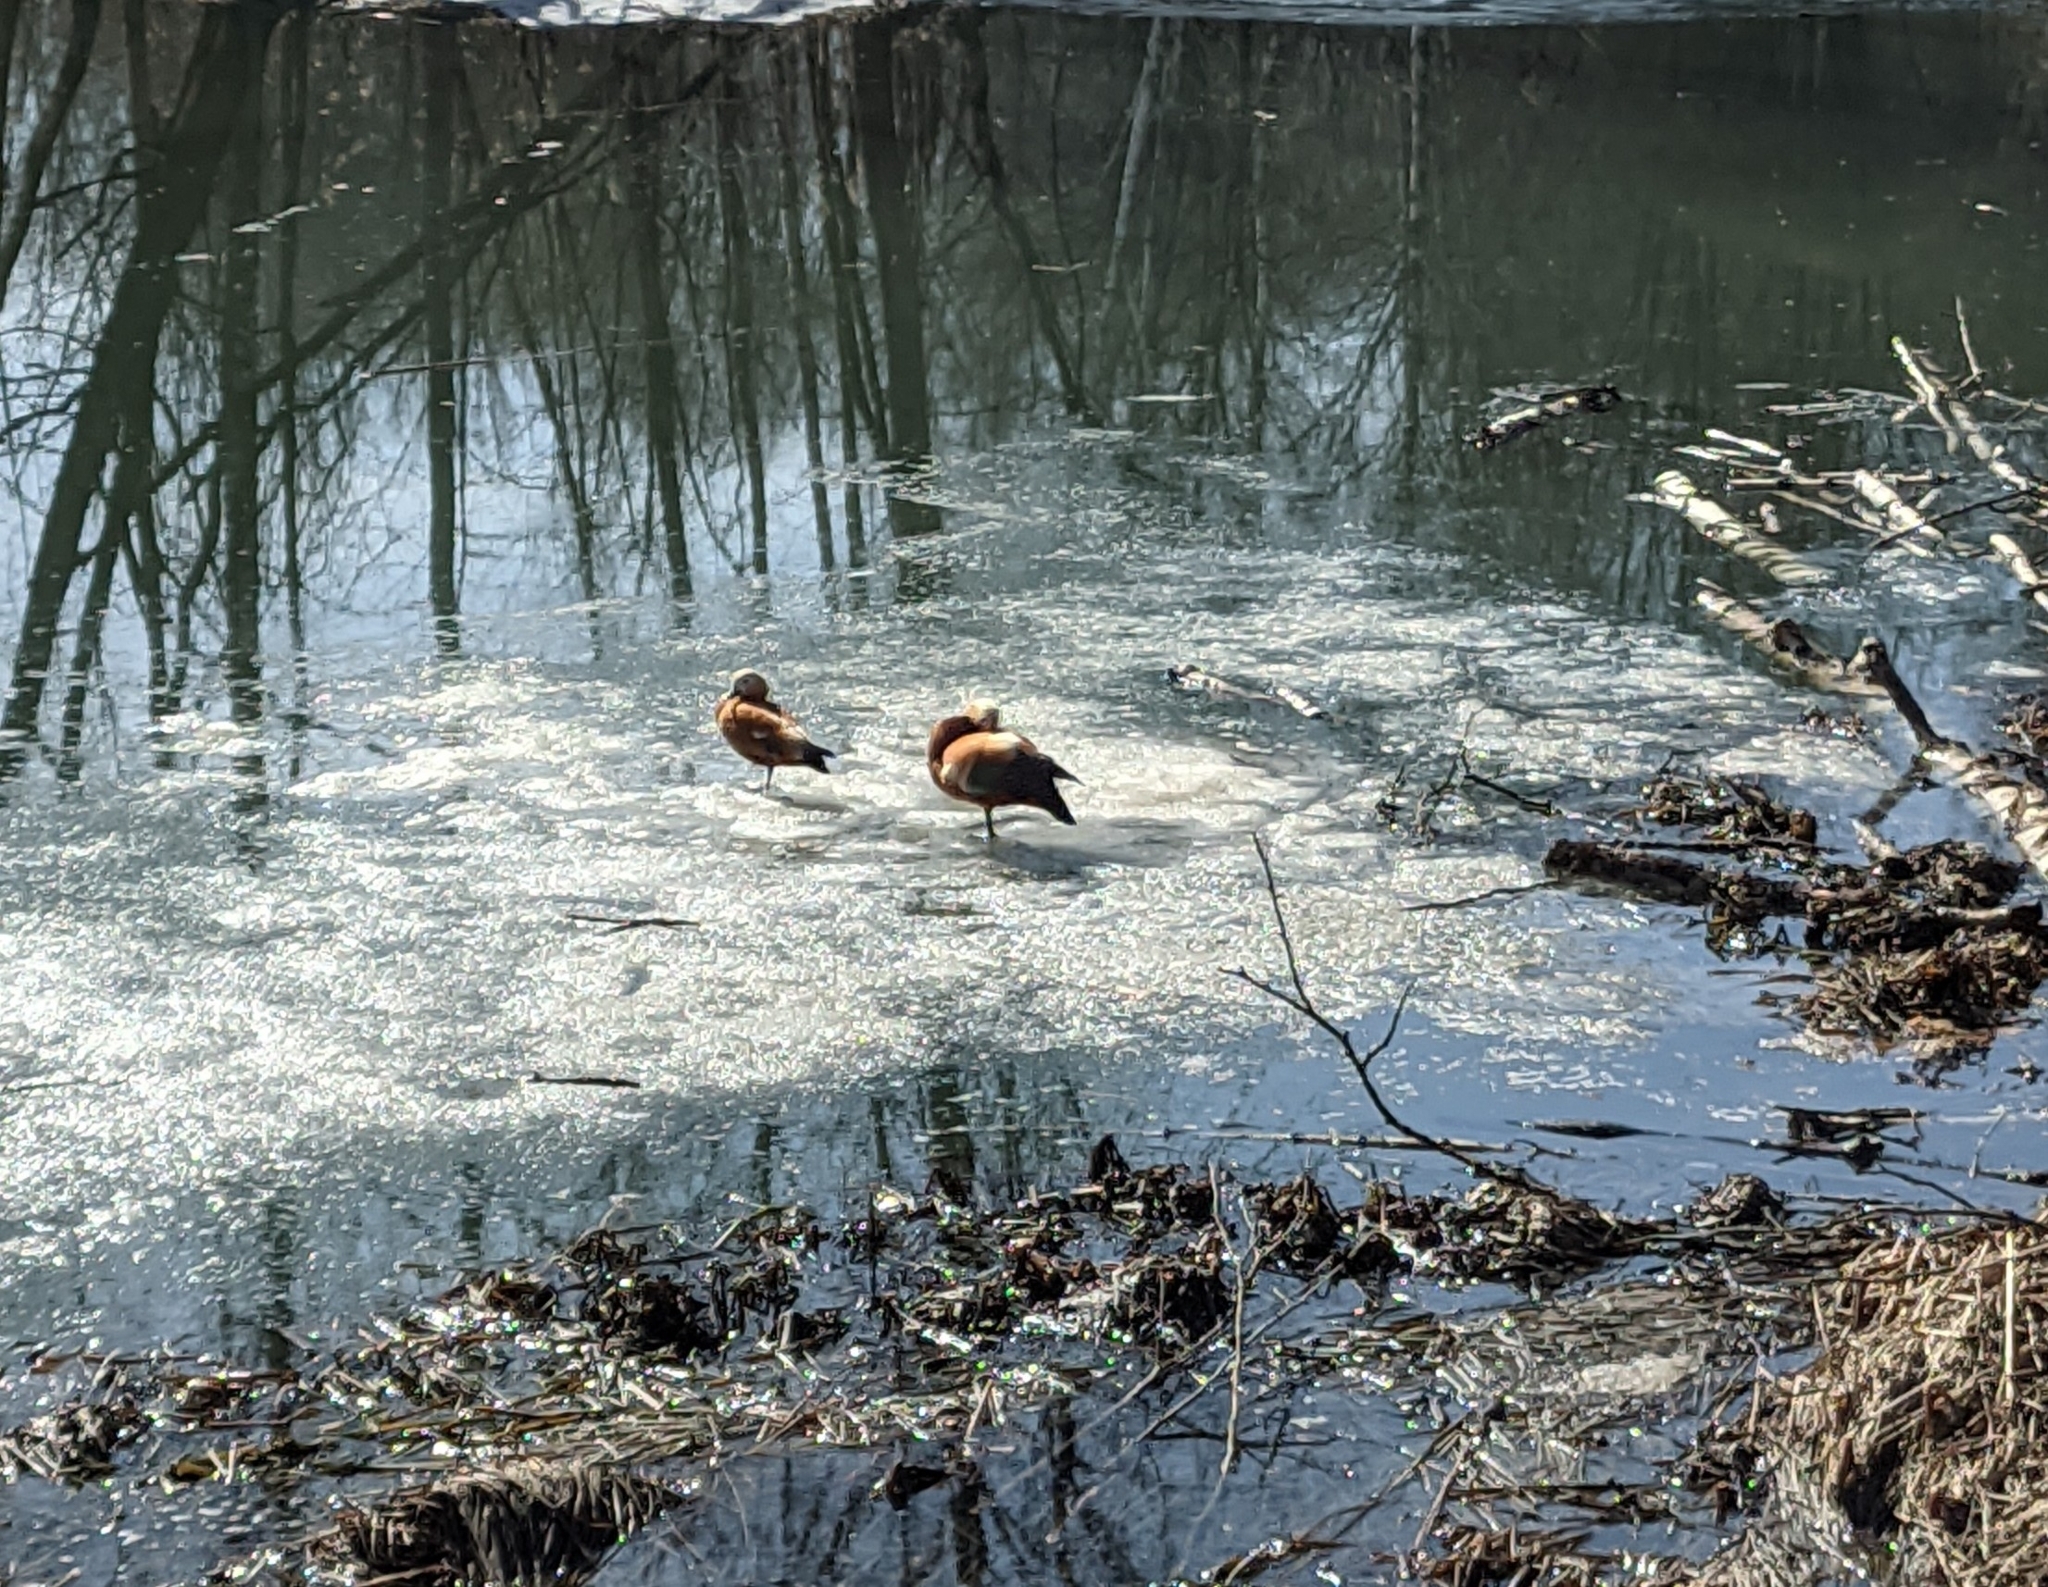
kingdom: Animalia
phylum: Chordata
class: Aves
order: Anseriformes
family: Anatidae
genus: Tadorna
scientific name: Tadorna ferruginea
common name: Ruddy shelduck
